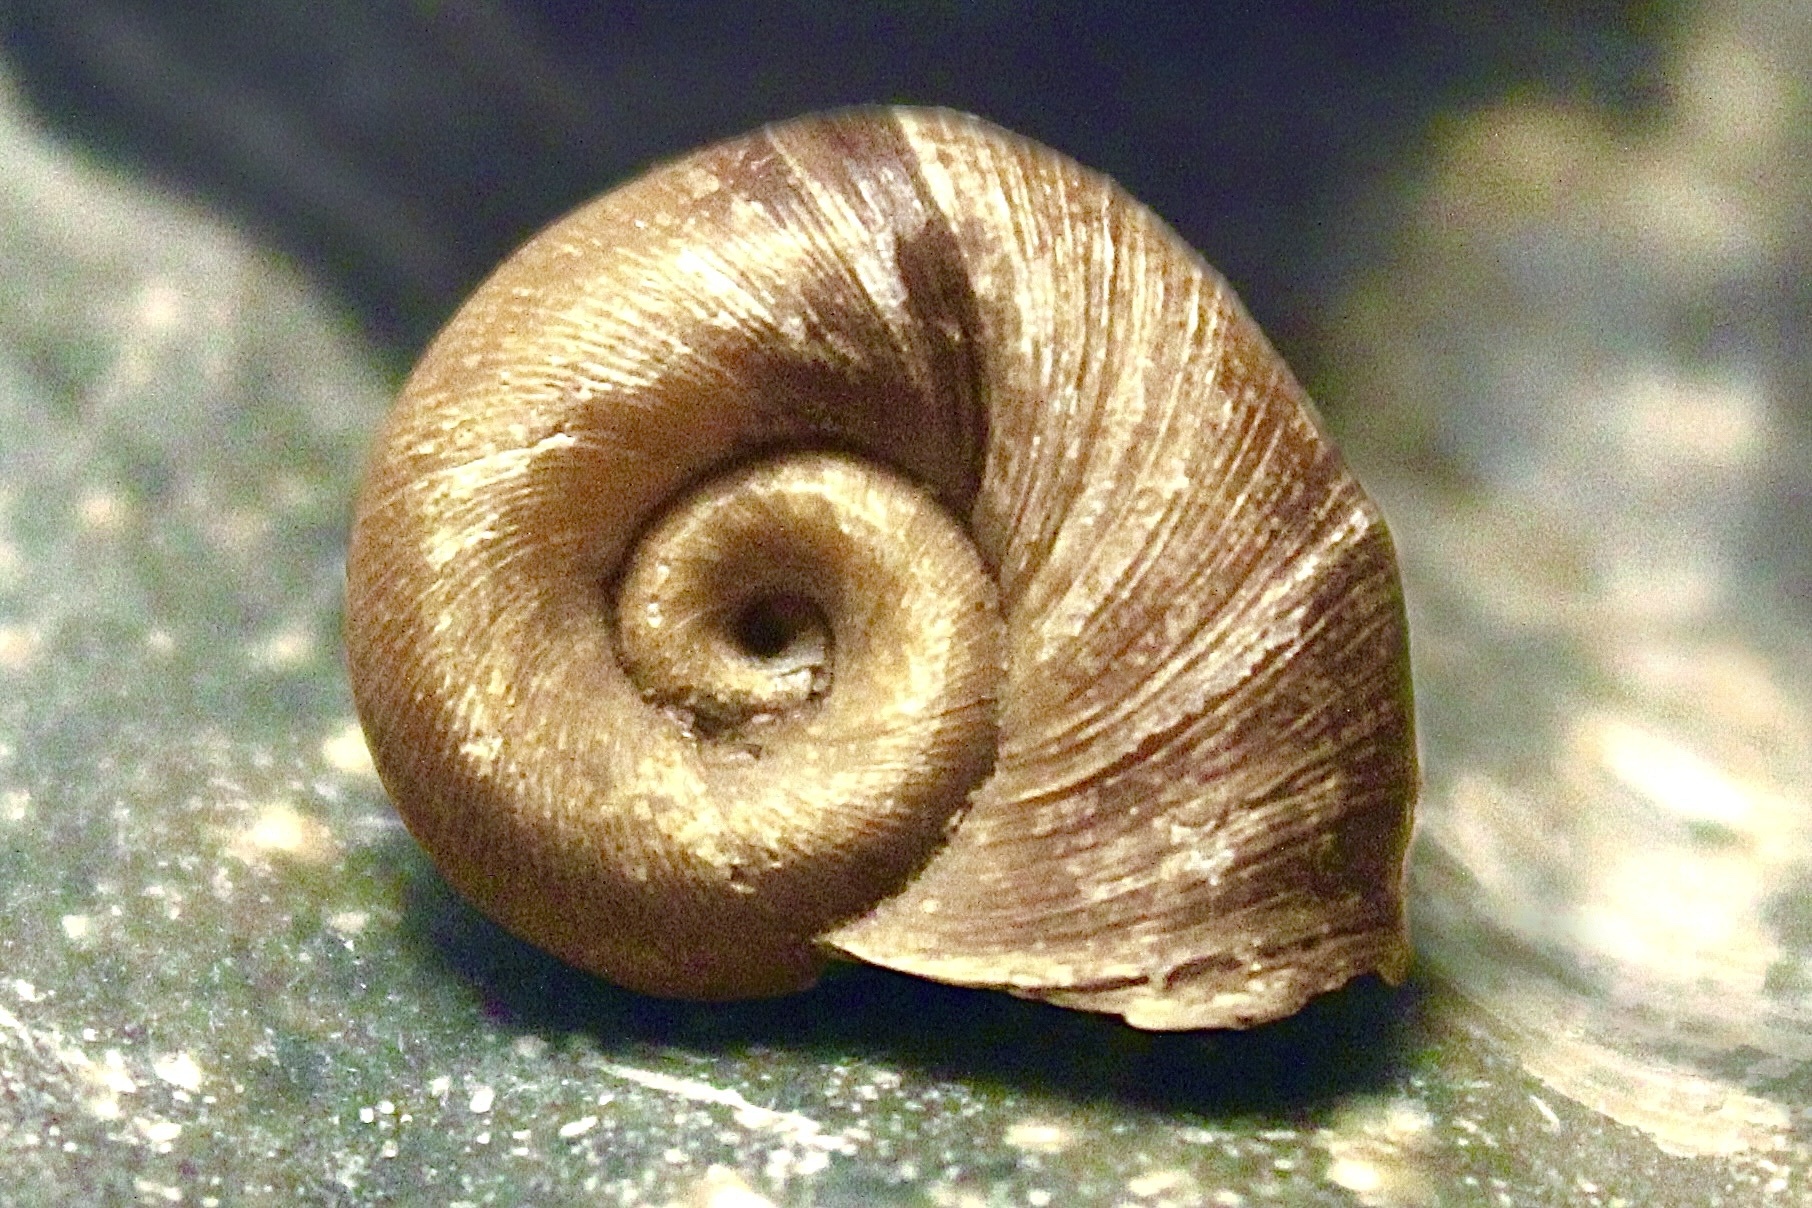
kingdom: Animalia
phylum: Mollusca
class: Gastropoda
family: Planorbidae
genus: Planorbella
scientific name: Planorbella trivolvis
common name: Marsh rams-horn
